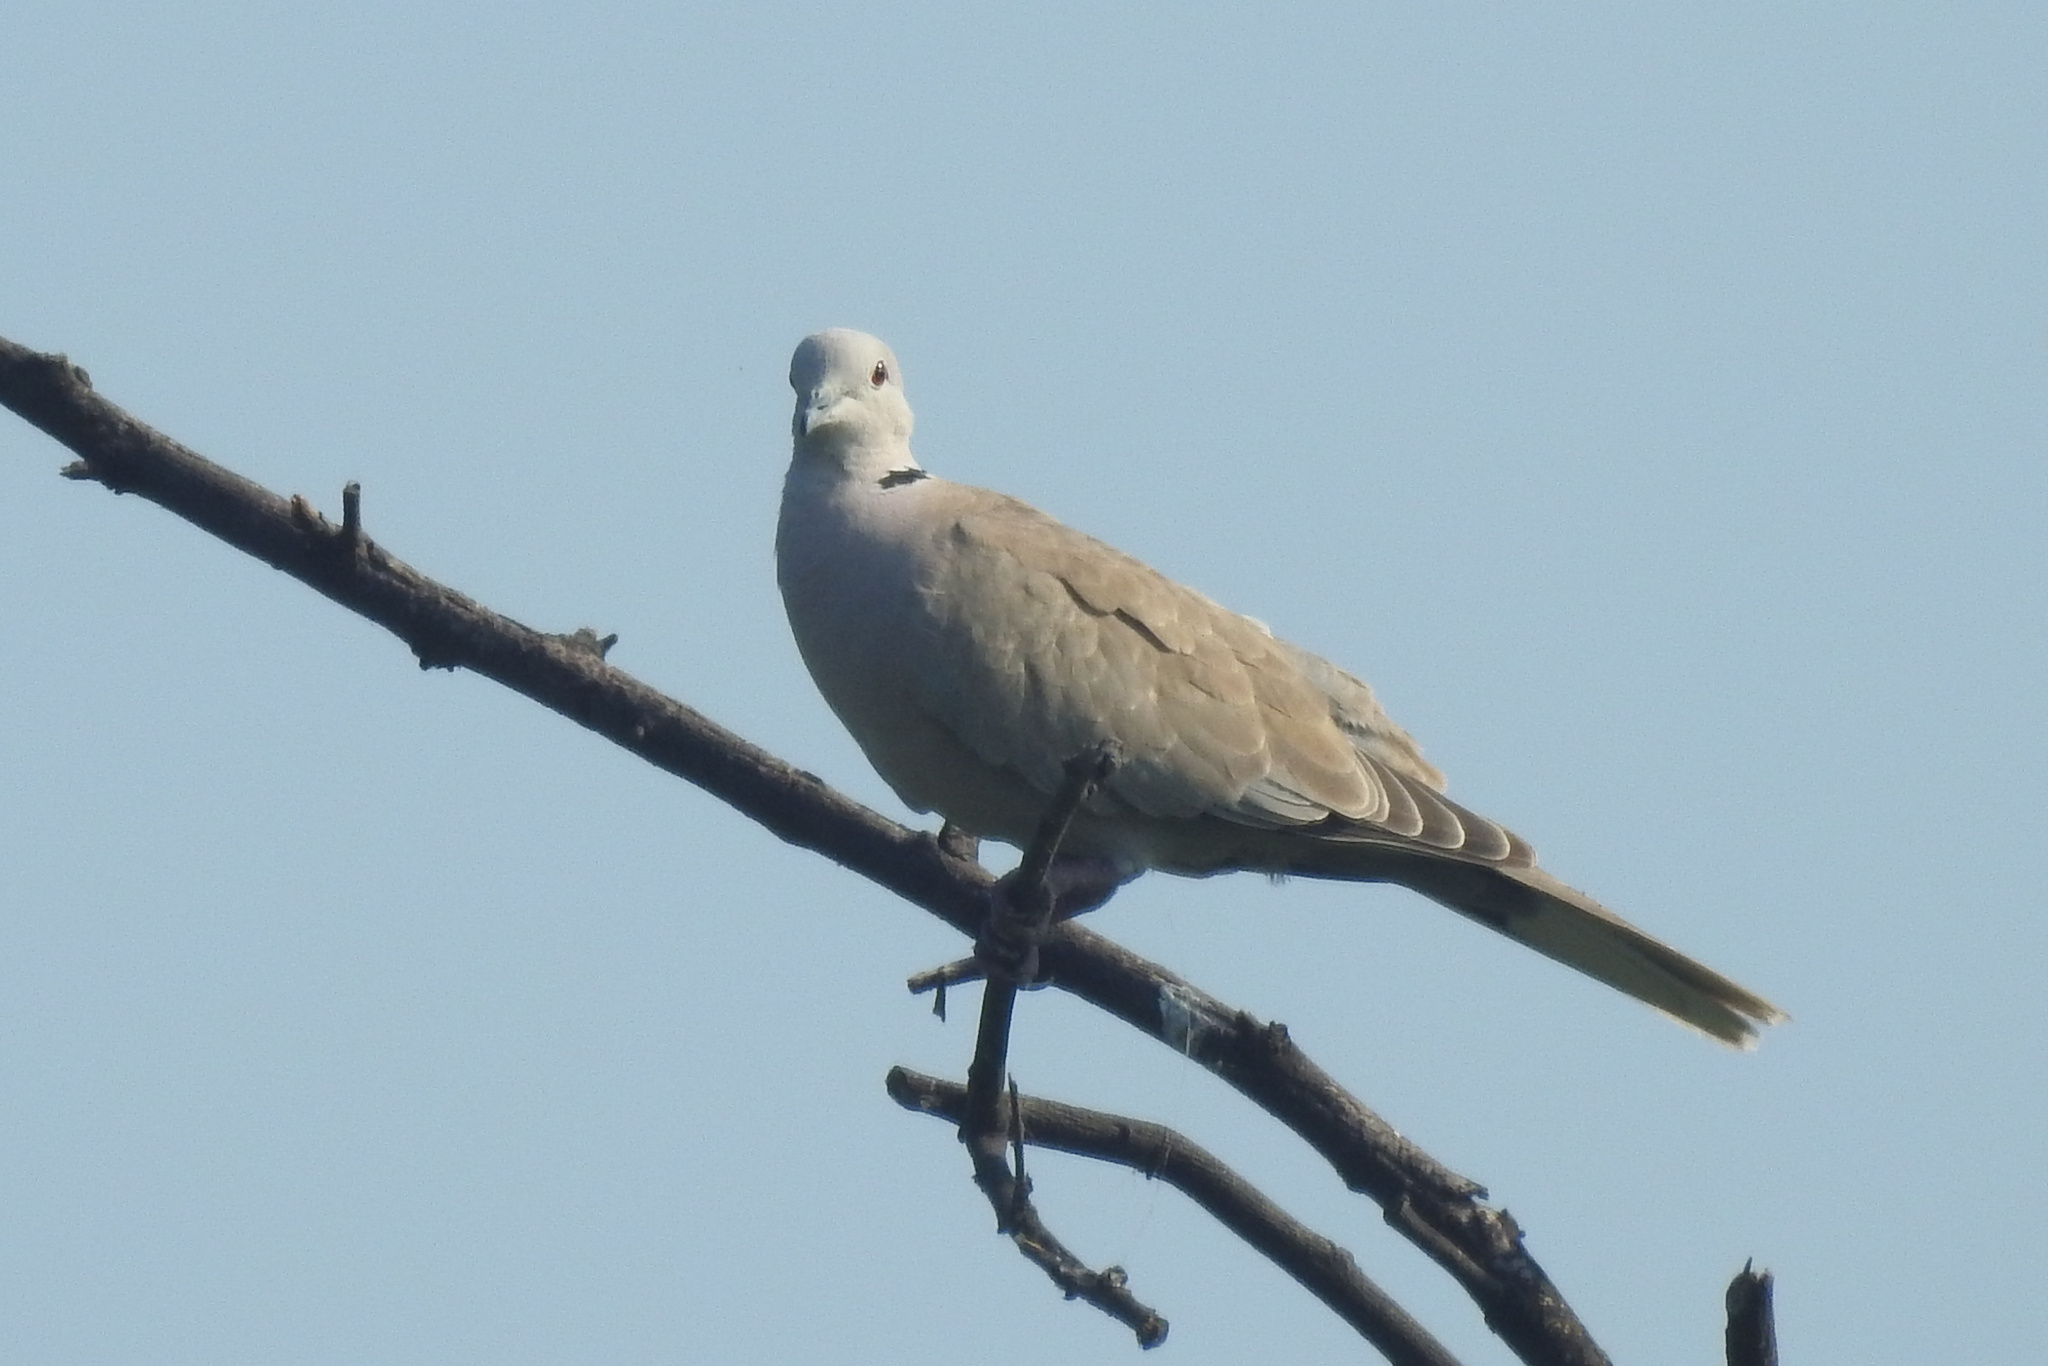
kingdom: Animalia
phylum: Chordata
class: Aves
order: Columbiformes
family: Columbidae
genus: Streptopelia
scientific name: Streptopelia decaocto
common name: Eurasian collared dove
